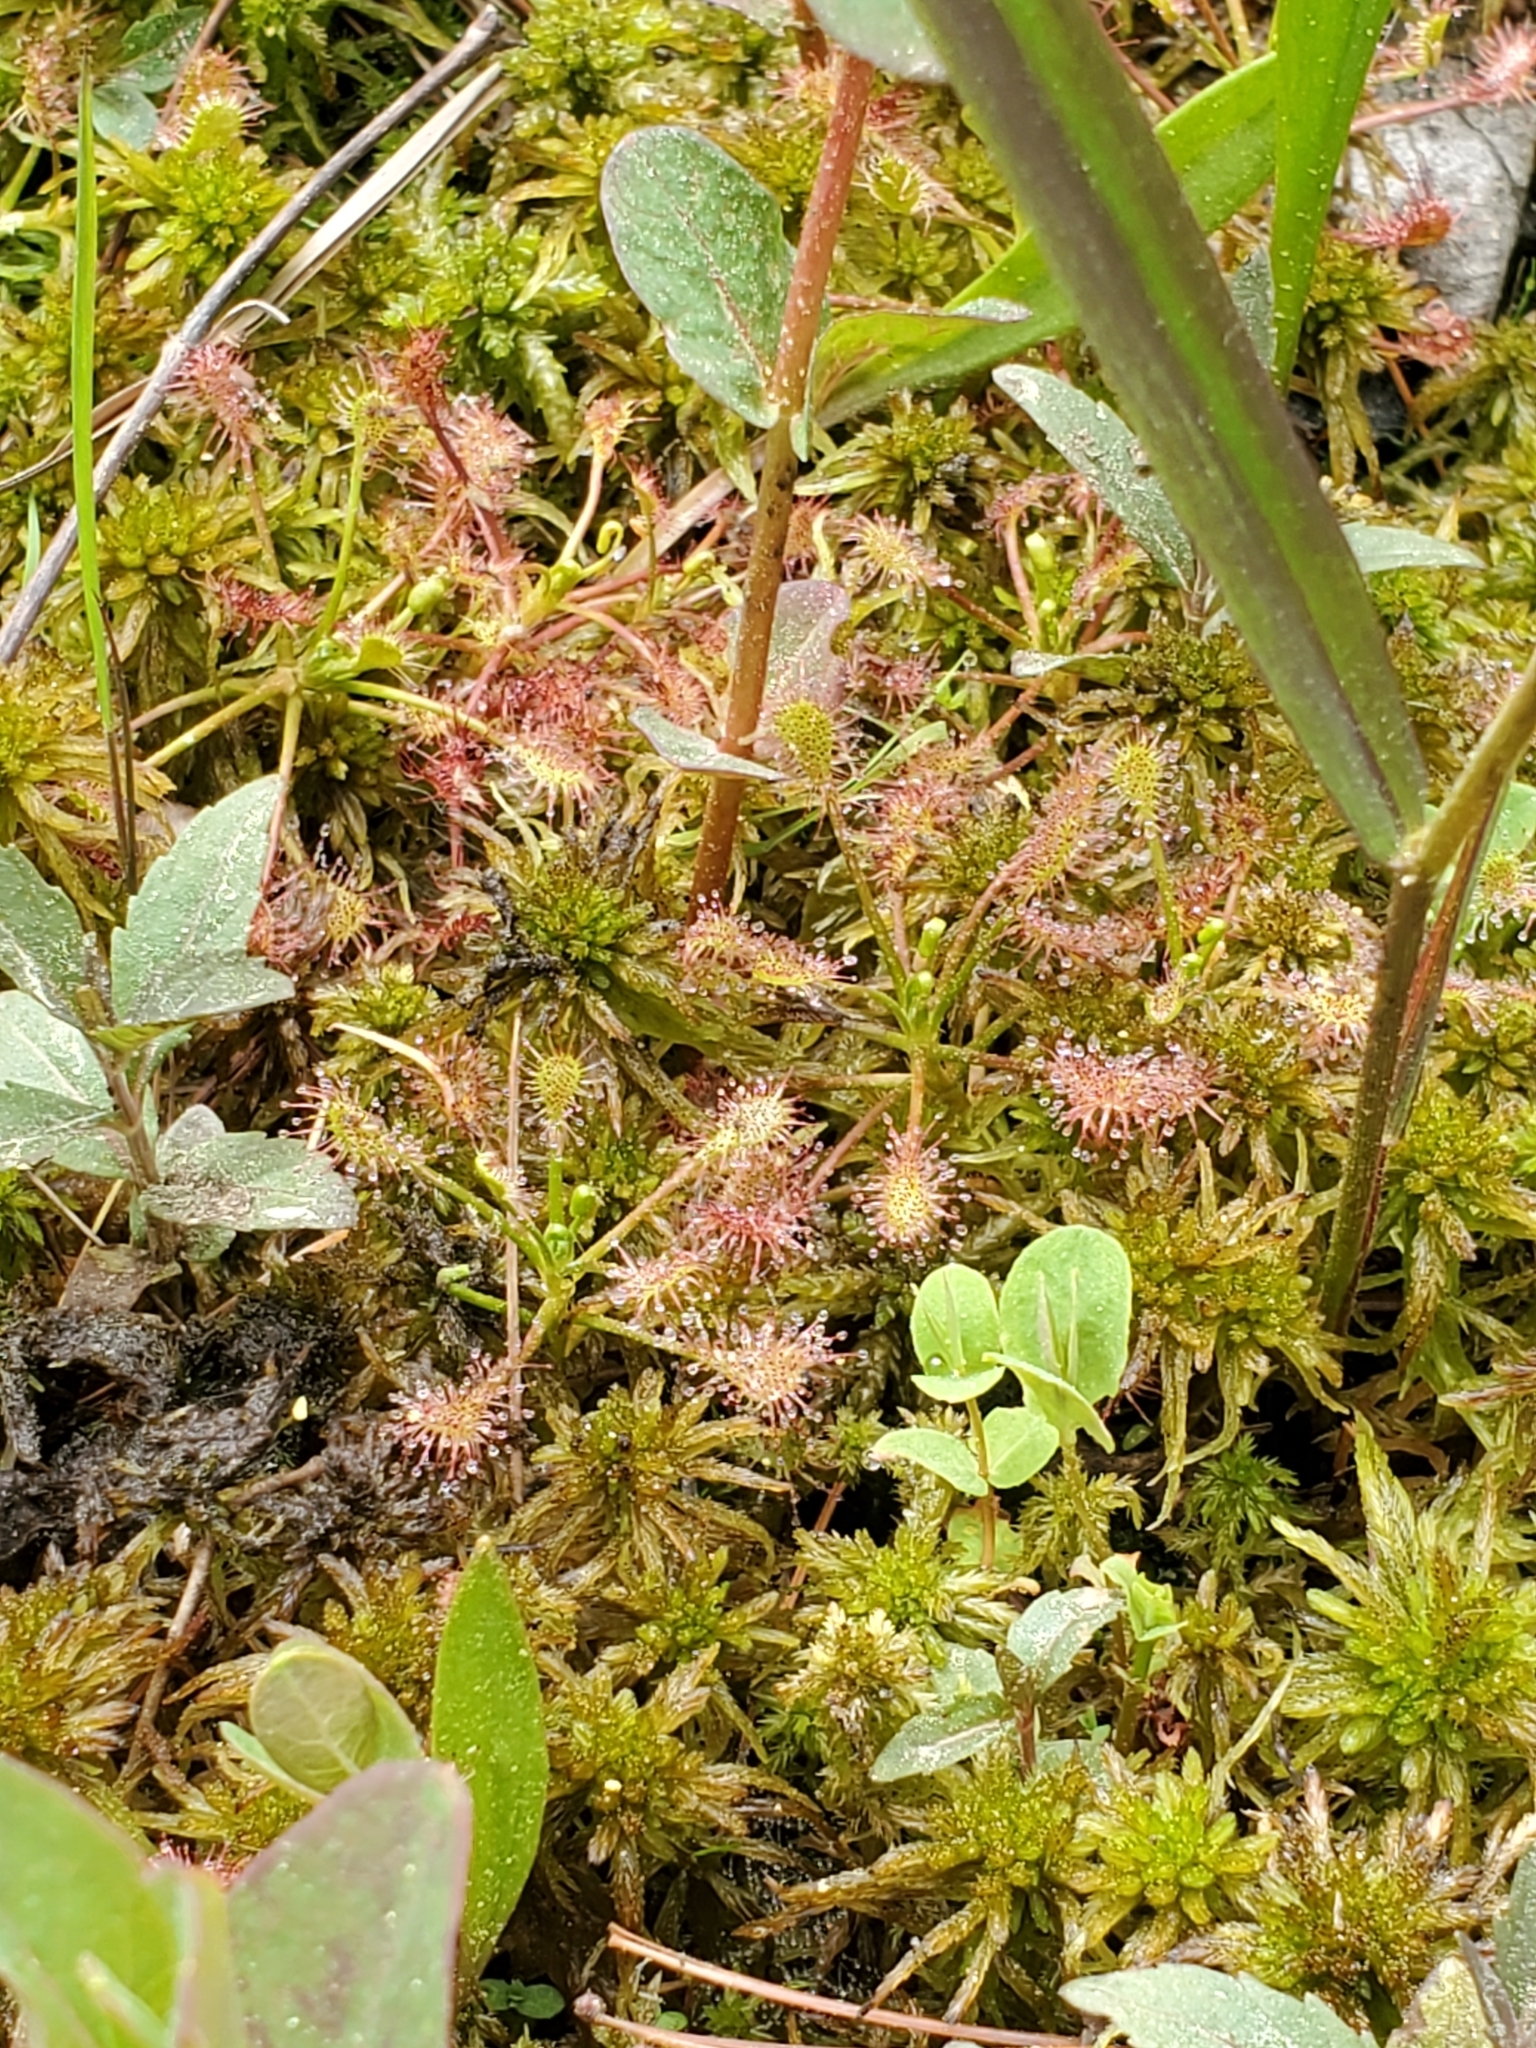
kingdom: Plantae
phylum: Tracheophyta
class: Magnoliopsida
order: Caryophyllales
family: Droseraceae
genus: Drosera
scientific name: Drosera intermedia
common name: Oblong-leaved sundew
